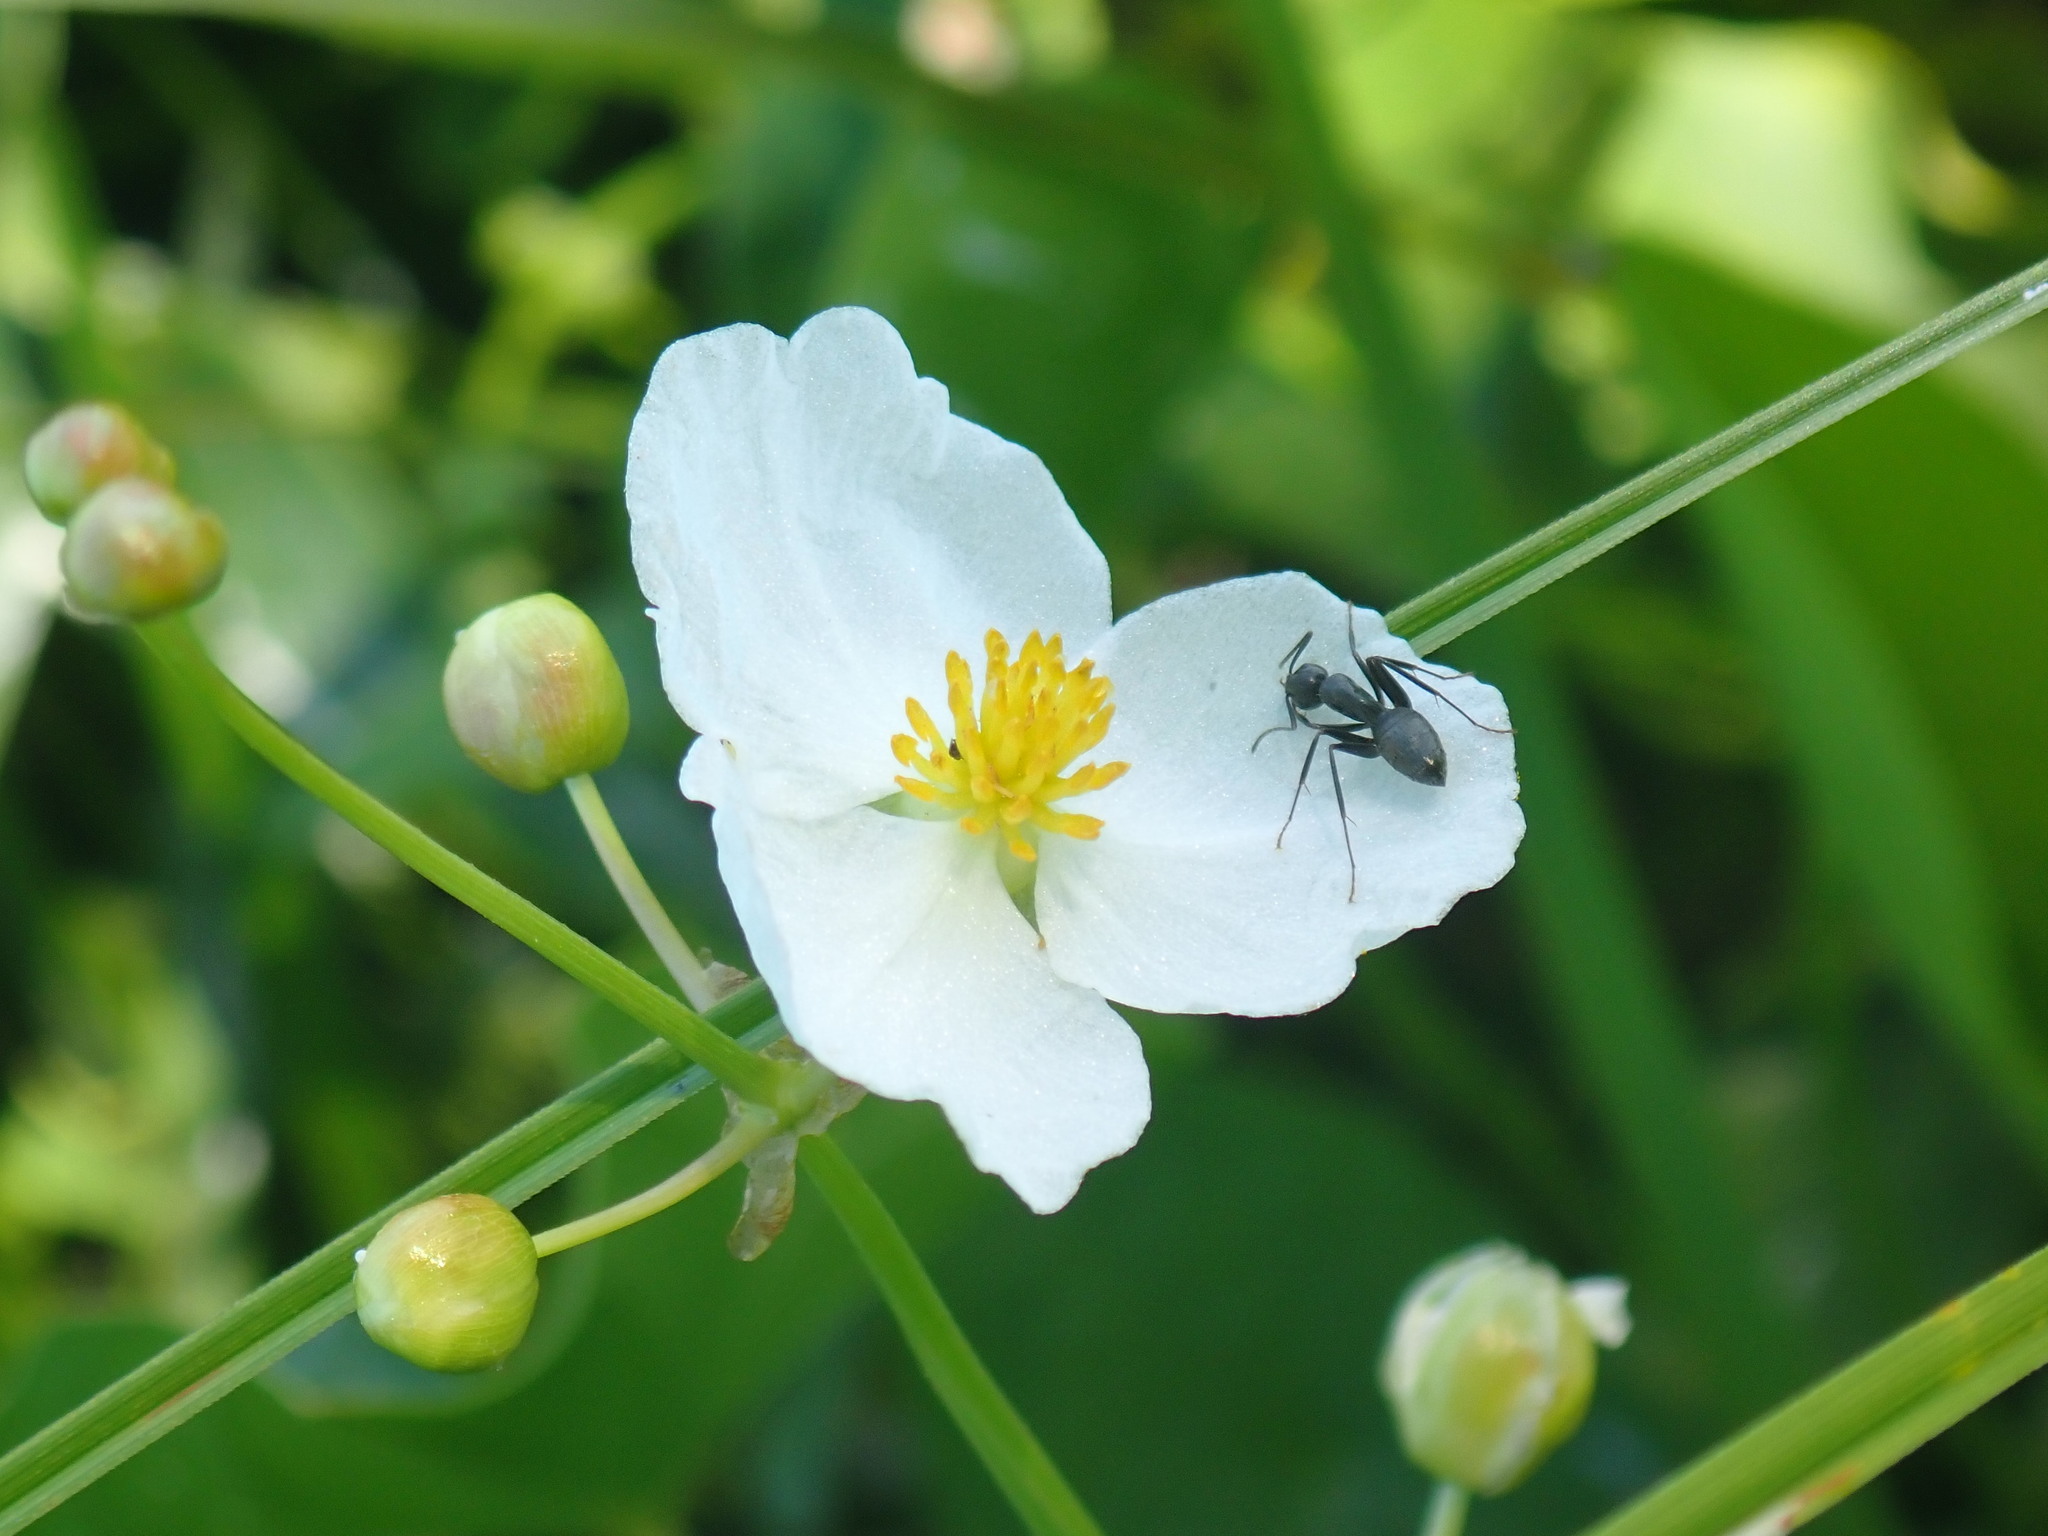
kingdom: Plantae
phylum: Tracheophyta
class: Liliopsida
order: Alismatales
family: Alismataceae
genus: Sagittaria
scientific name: Sagittaria latifolia
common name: Duck-potato
